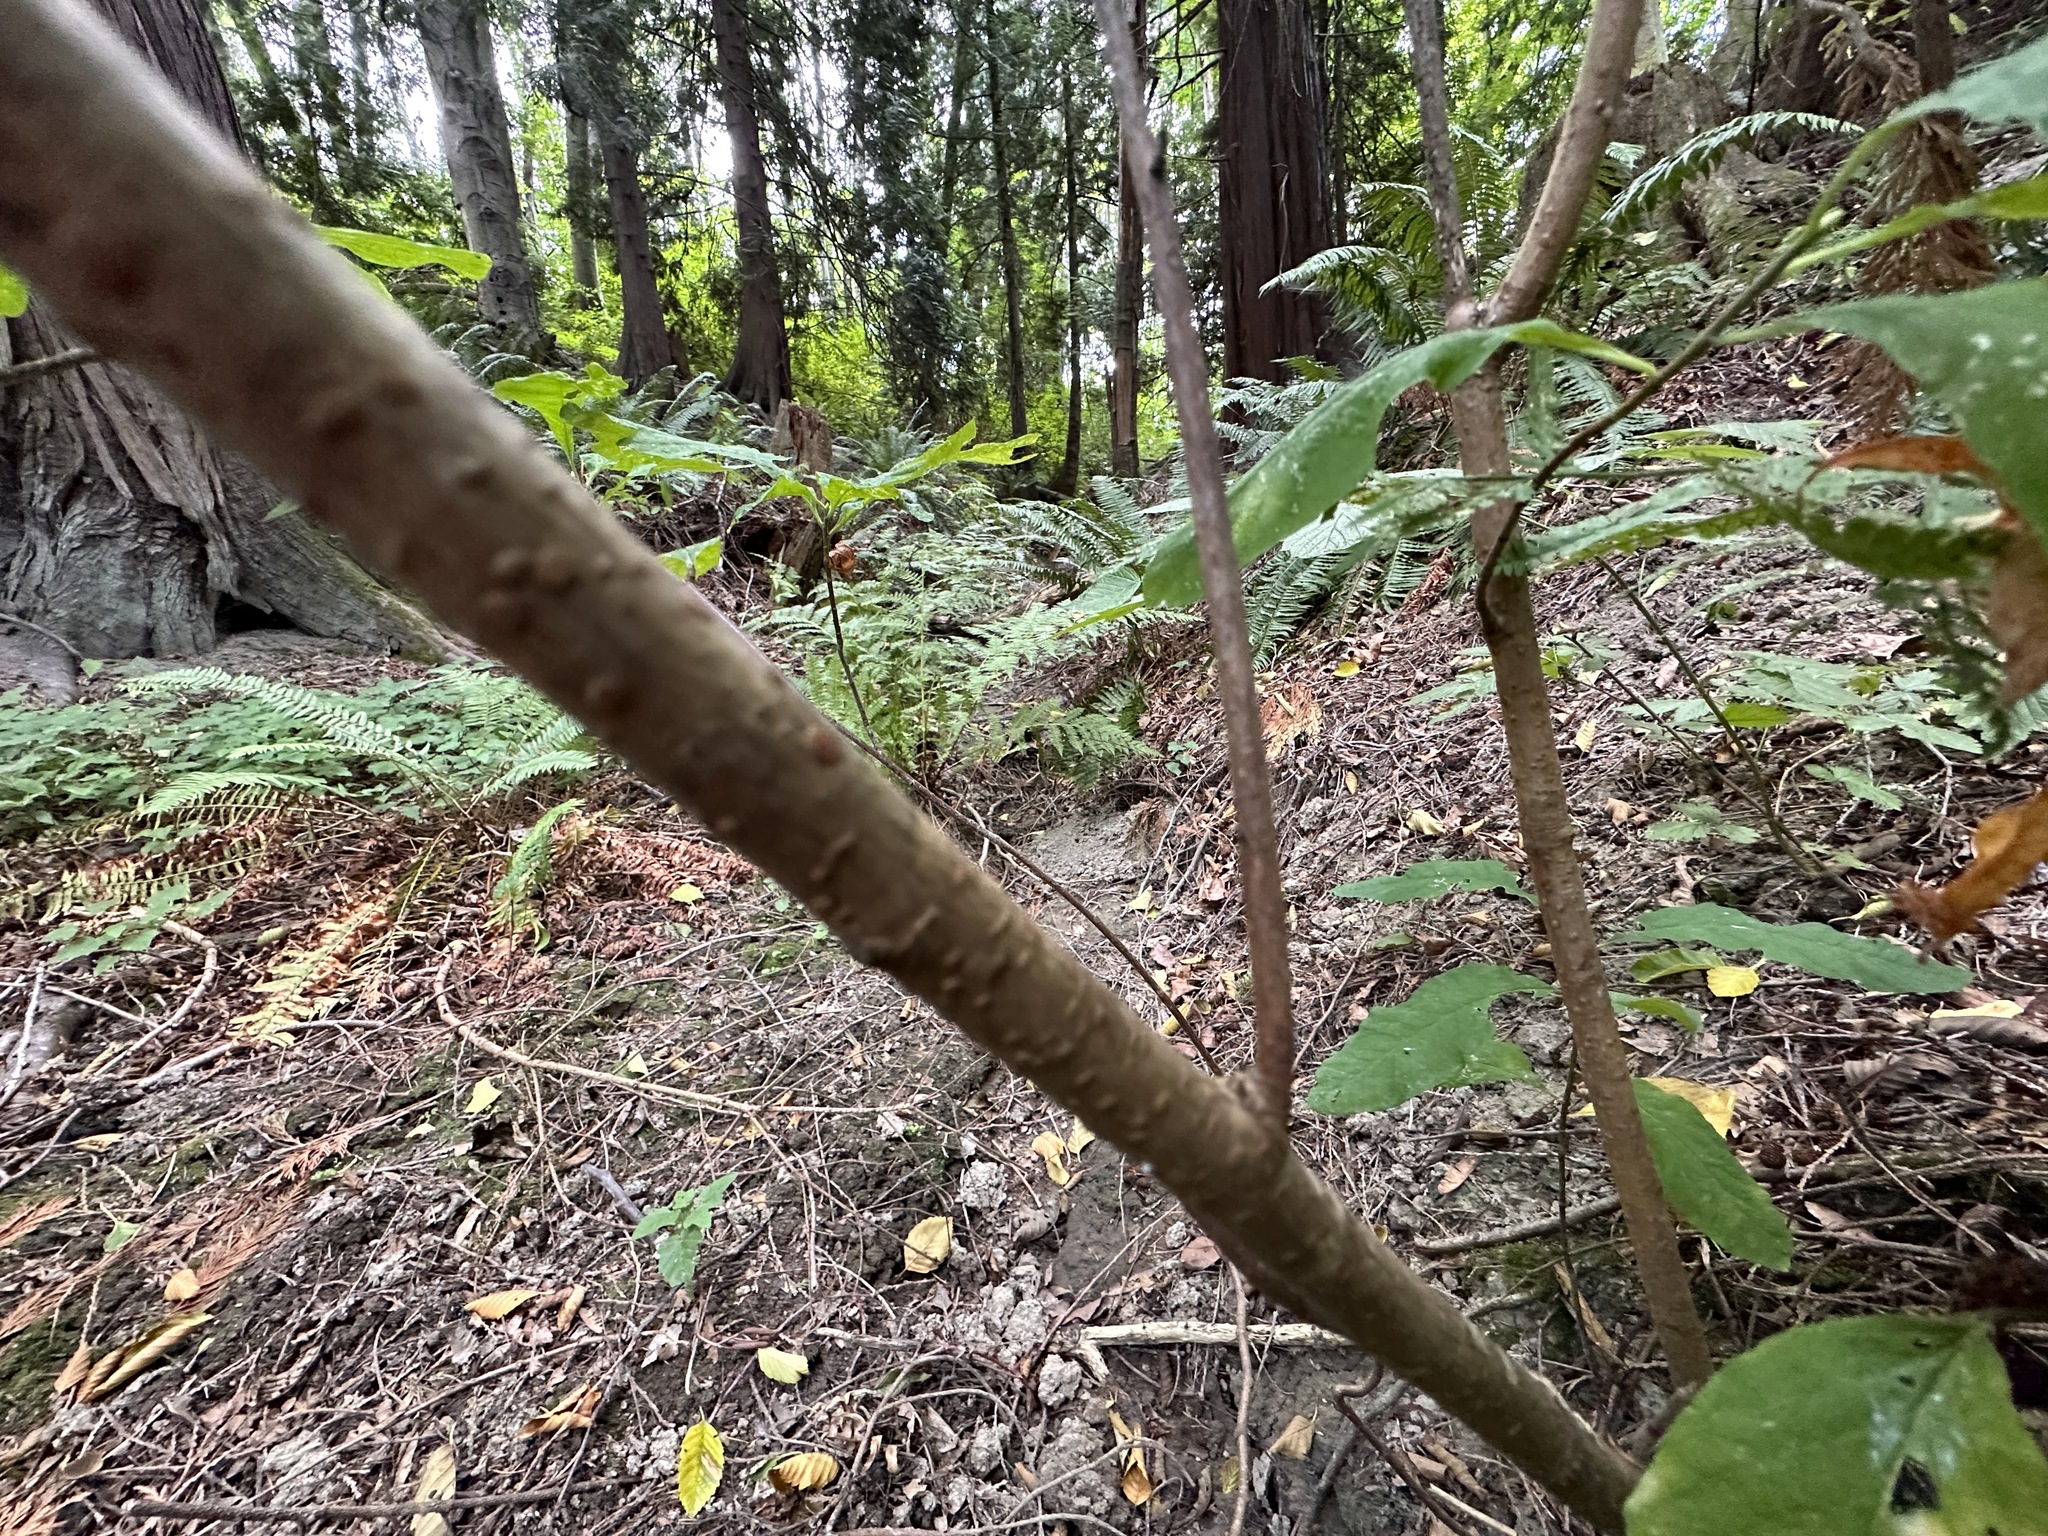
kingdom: Plantae
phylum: Tracheophyta
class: Magnoliopsida
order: Rosales
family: Rosaceae
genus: Oemleria
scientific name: Oemleria cerasiformis
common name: Osoberry
